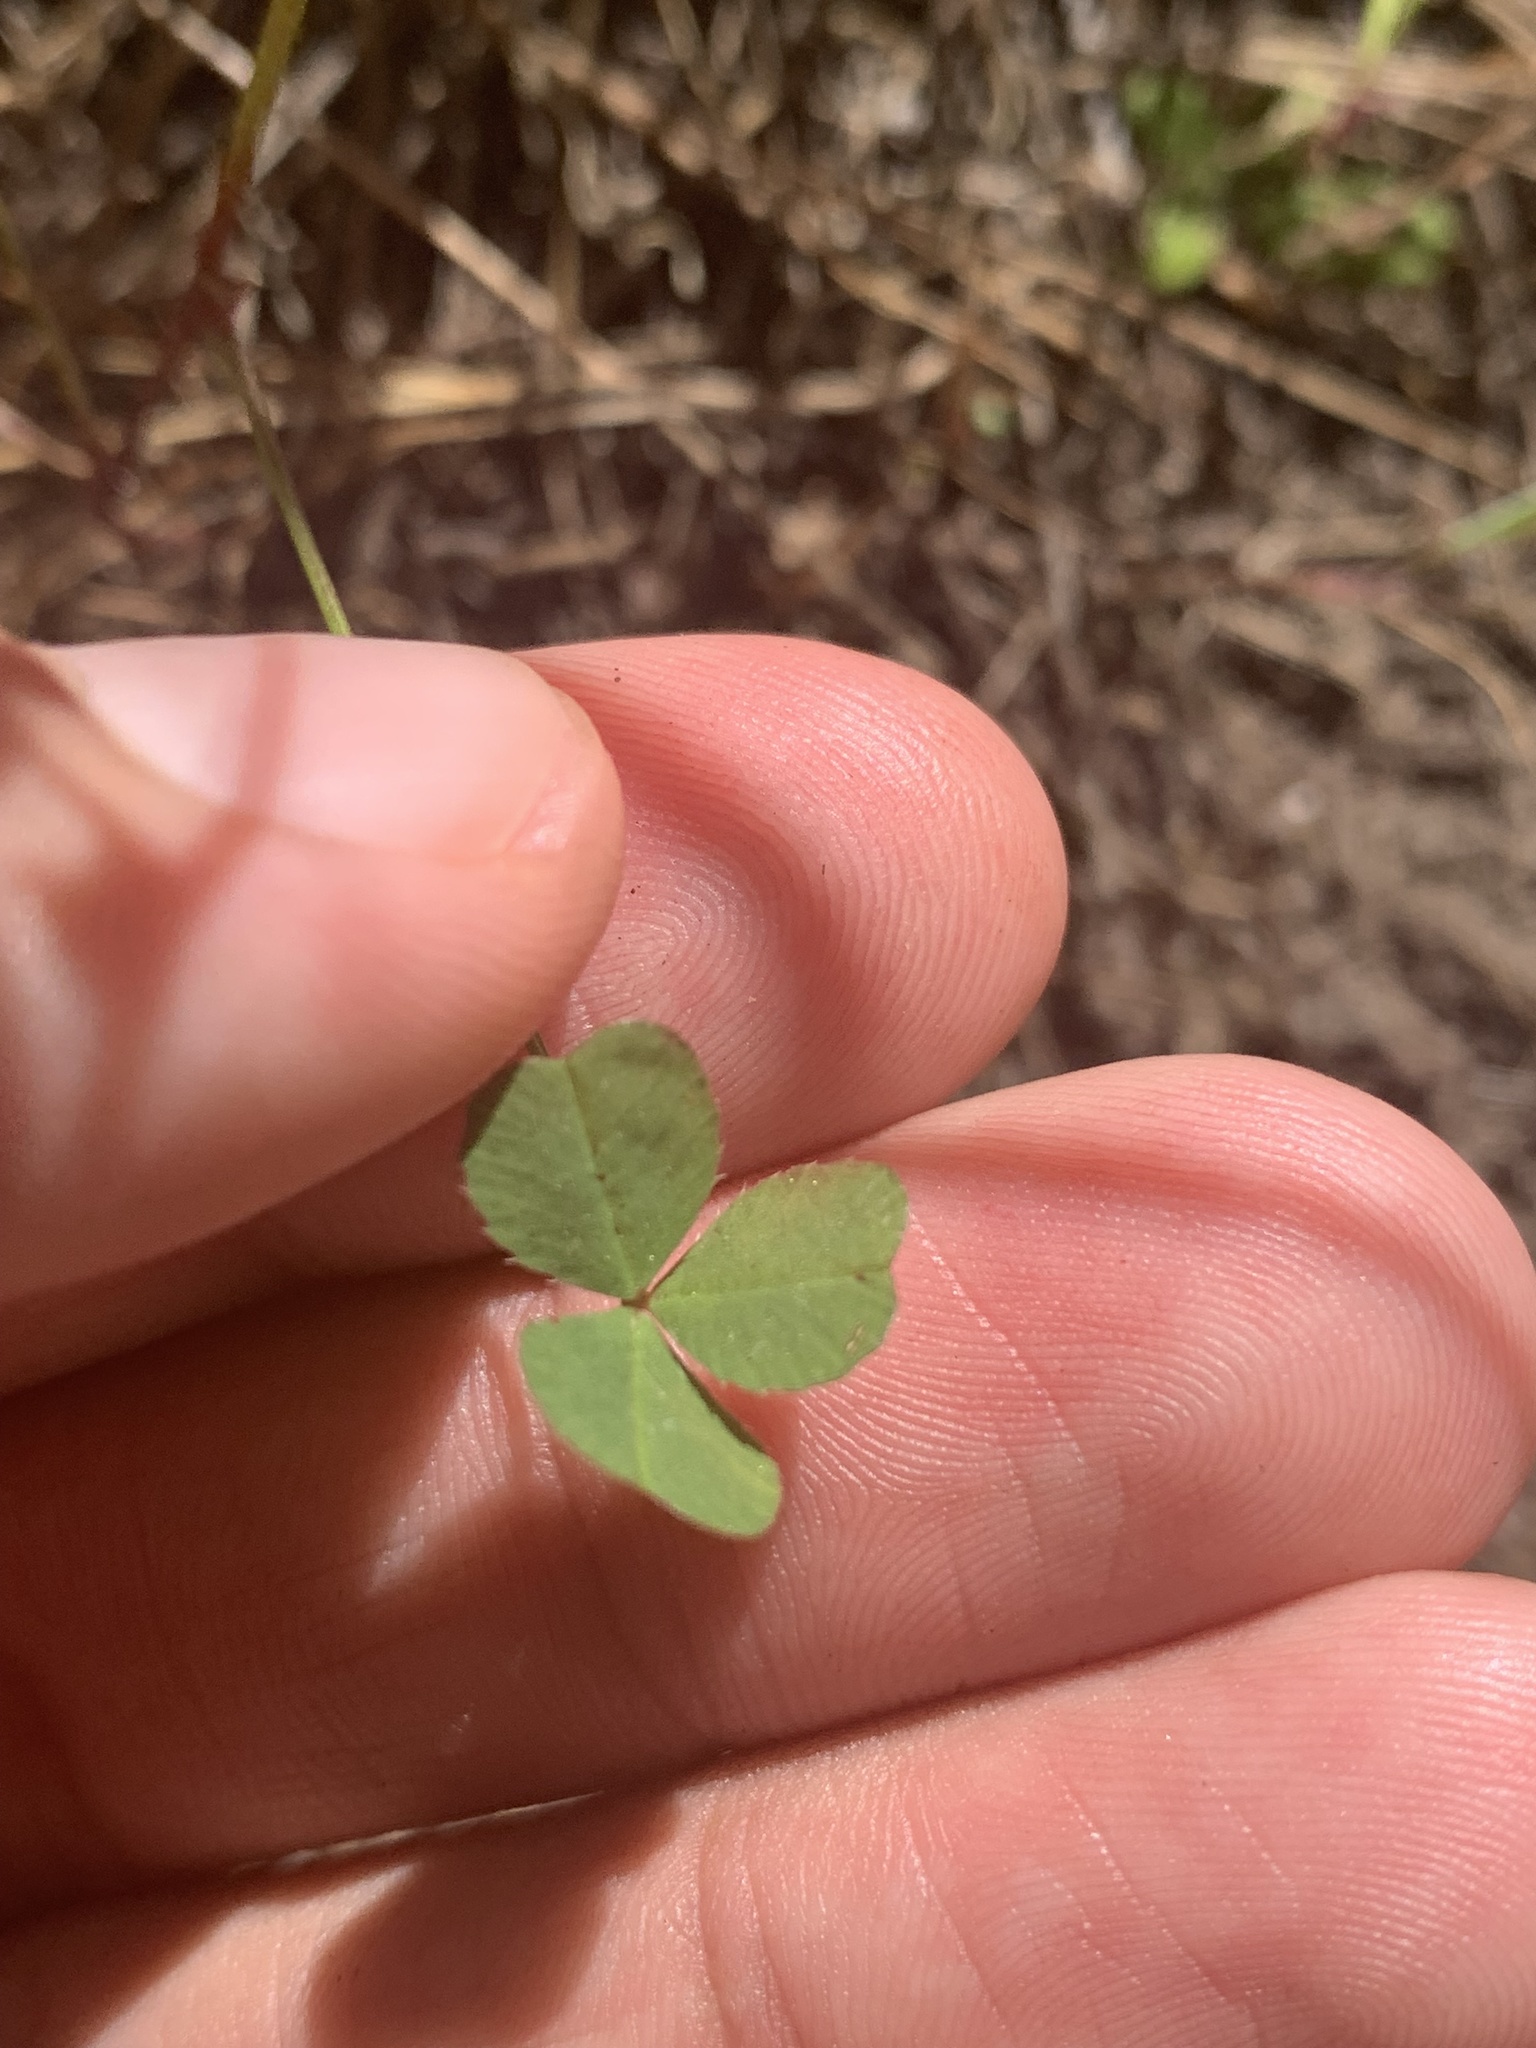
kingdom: Plantae
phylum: Tracheophyta
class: Magnoliopsida
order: Fabales
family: Fabaceae
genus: Trifolium
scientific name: Trifolium gracilentum
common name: Slender clover
